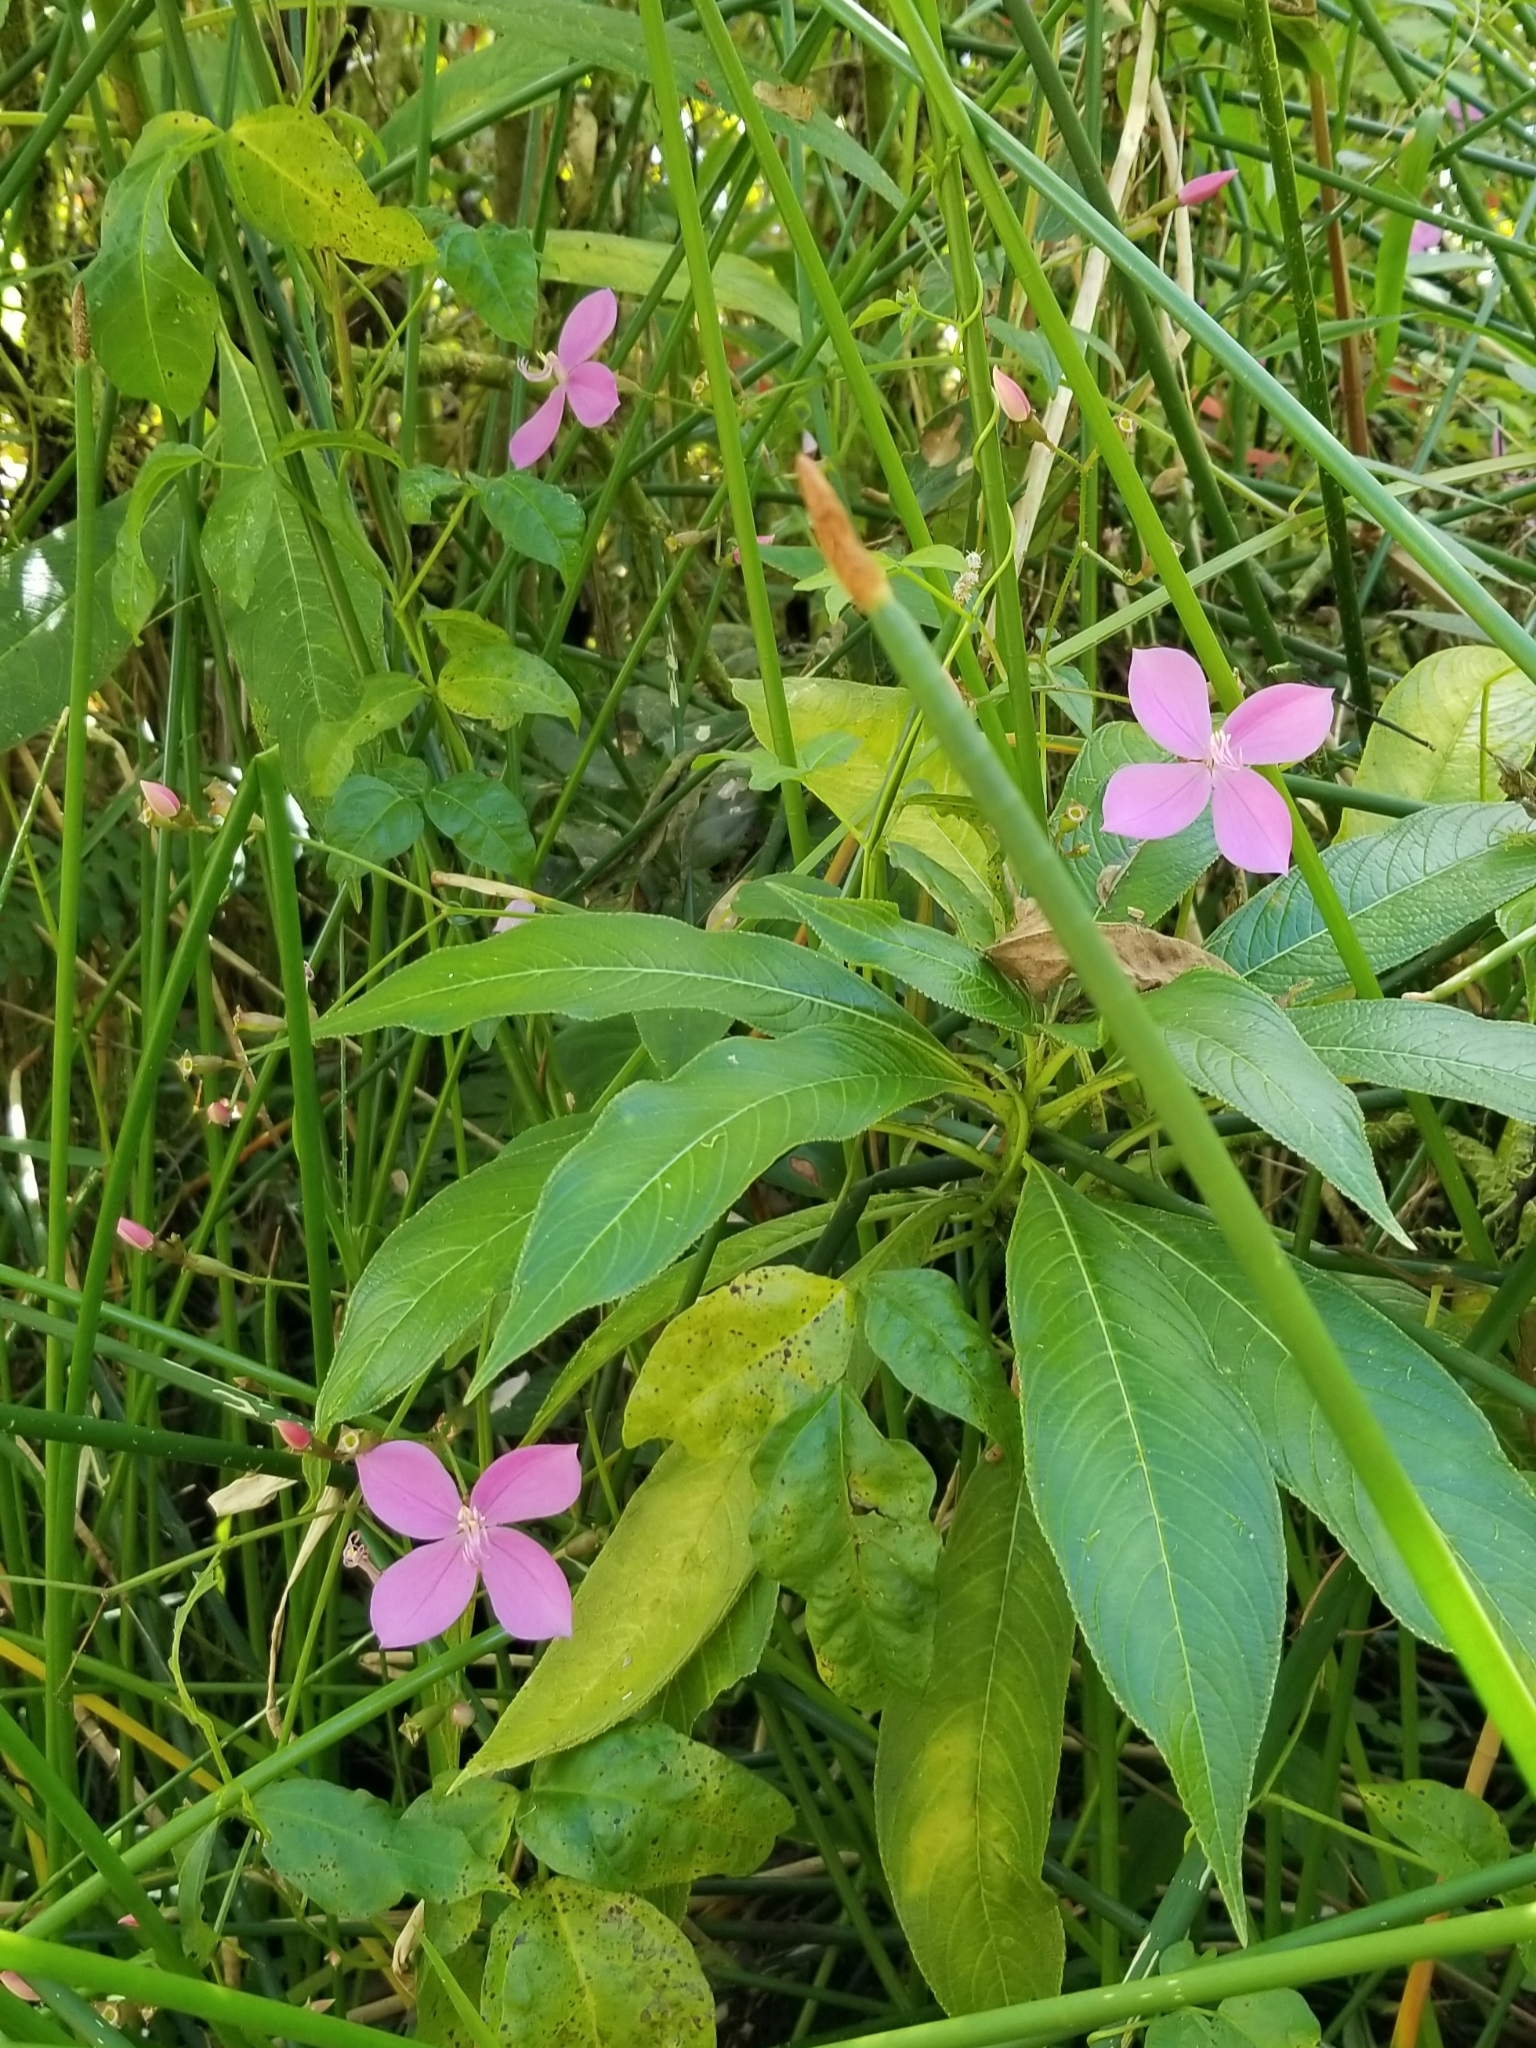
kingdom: Plantae
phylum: Tracheophyta
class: Magnoliopsida
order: Myrtales
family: Melastomataceae
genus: Arthrostemma
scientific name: Arthrostemma ciliatum
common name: Everblooming eavender
